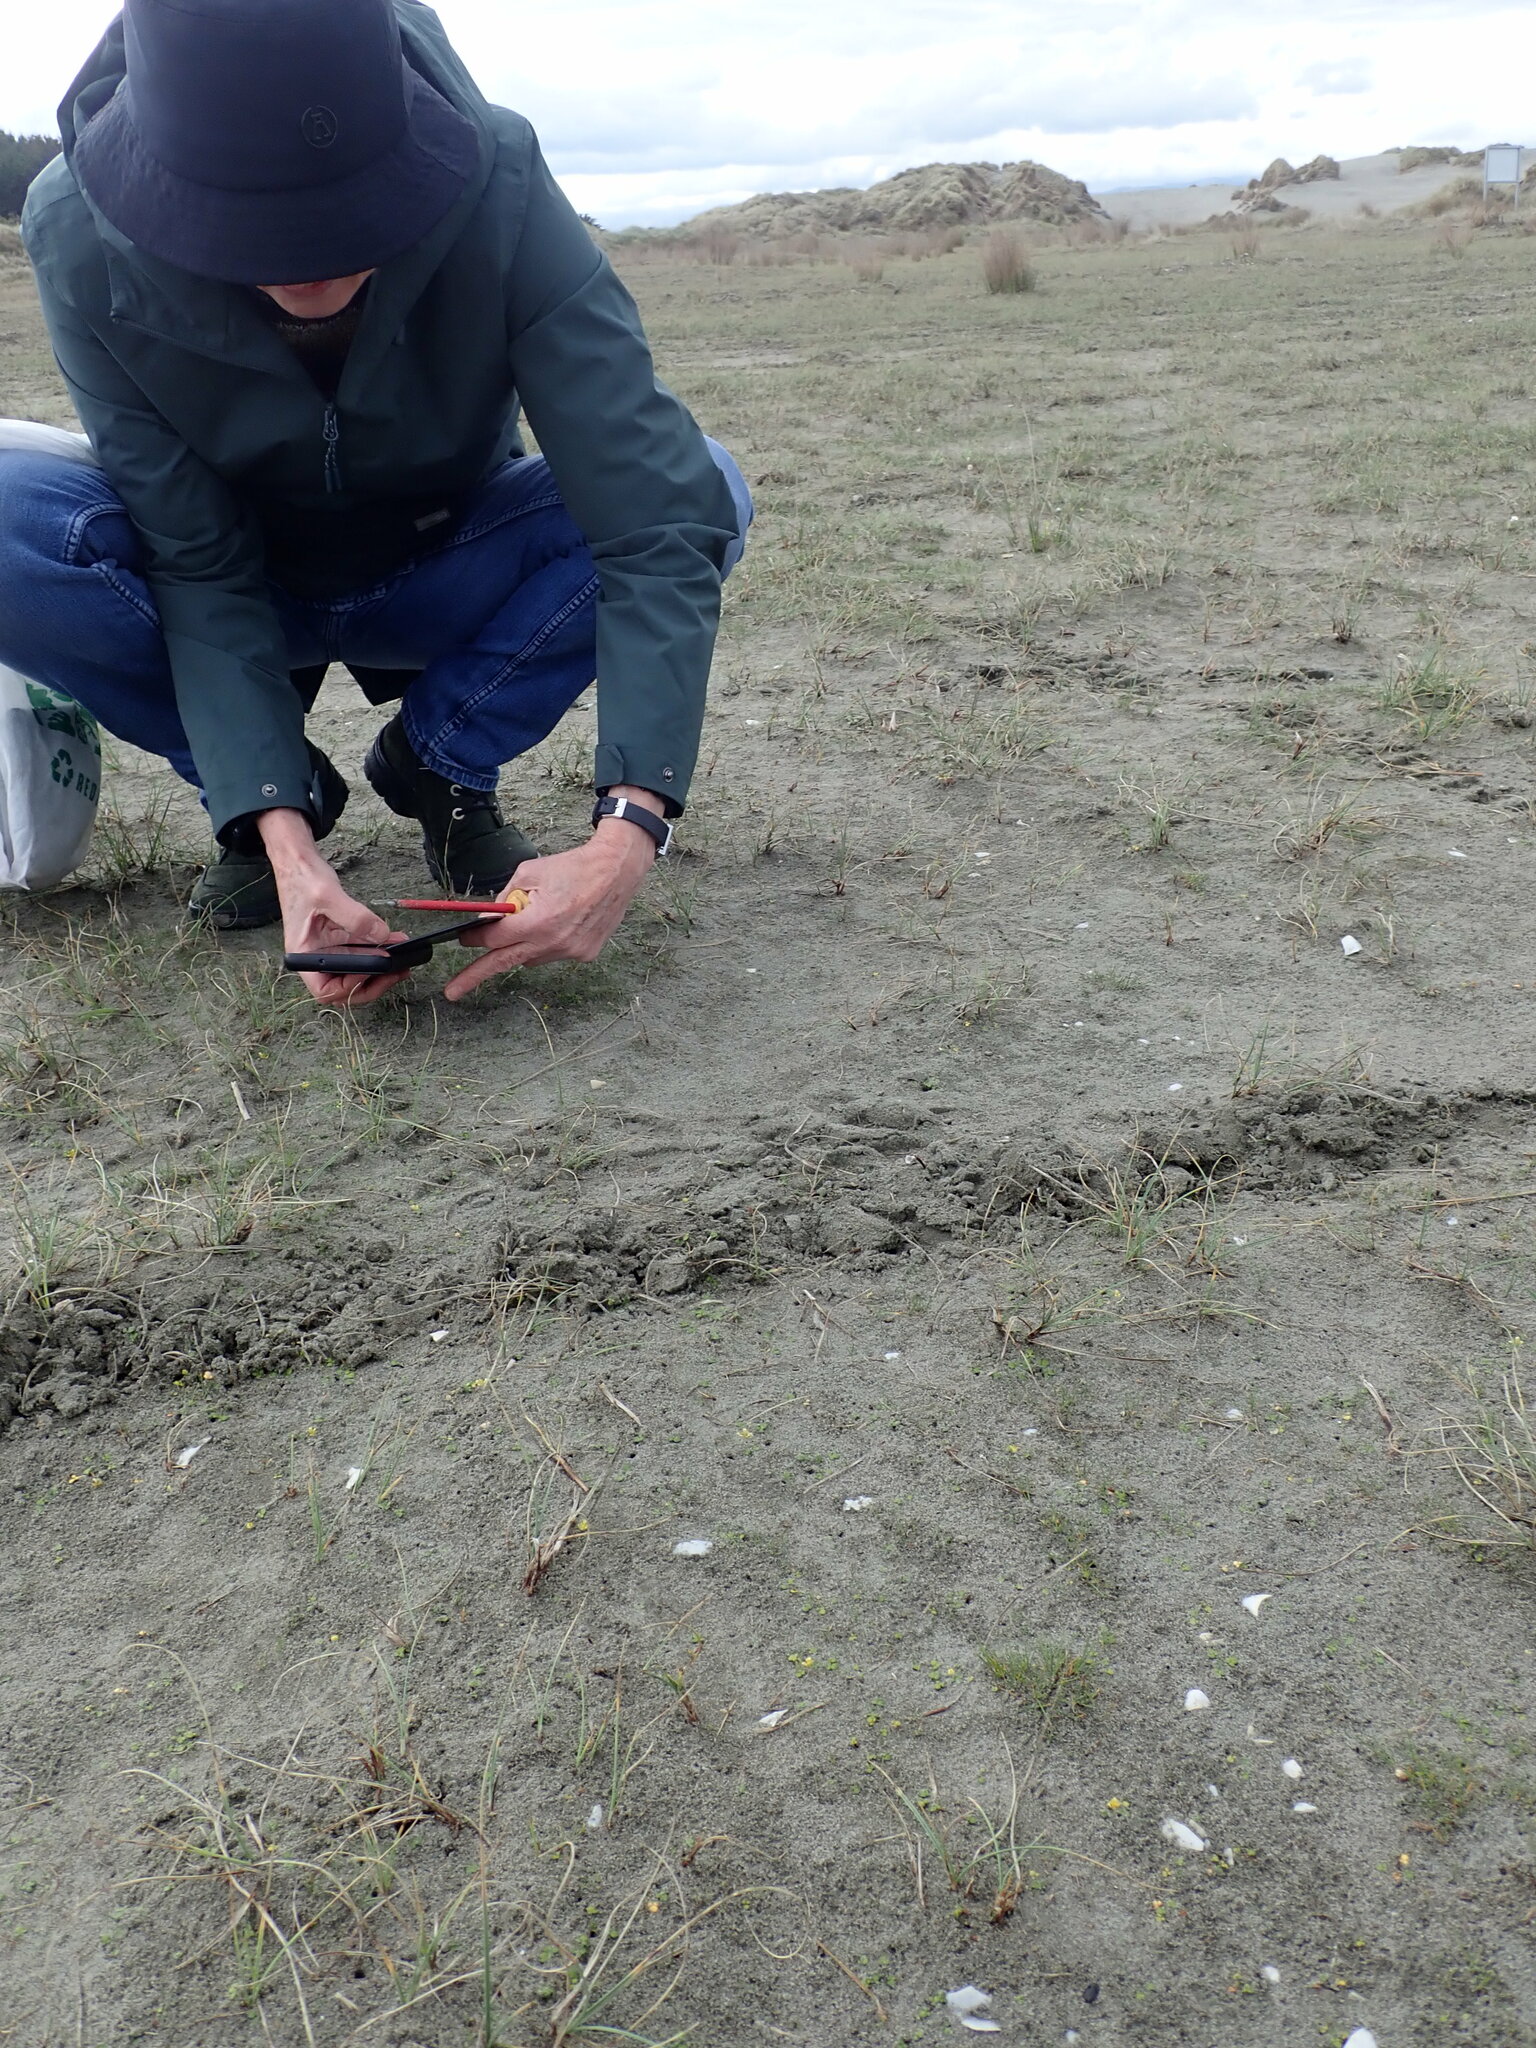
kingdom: Plantae
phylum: Tracheophyta
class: Magnoliopsida
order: Ranunculales
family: Ranunculaceae
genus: Ranunculus
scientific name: Ranunculus acaulis
